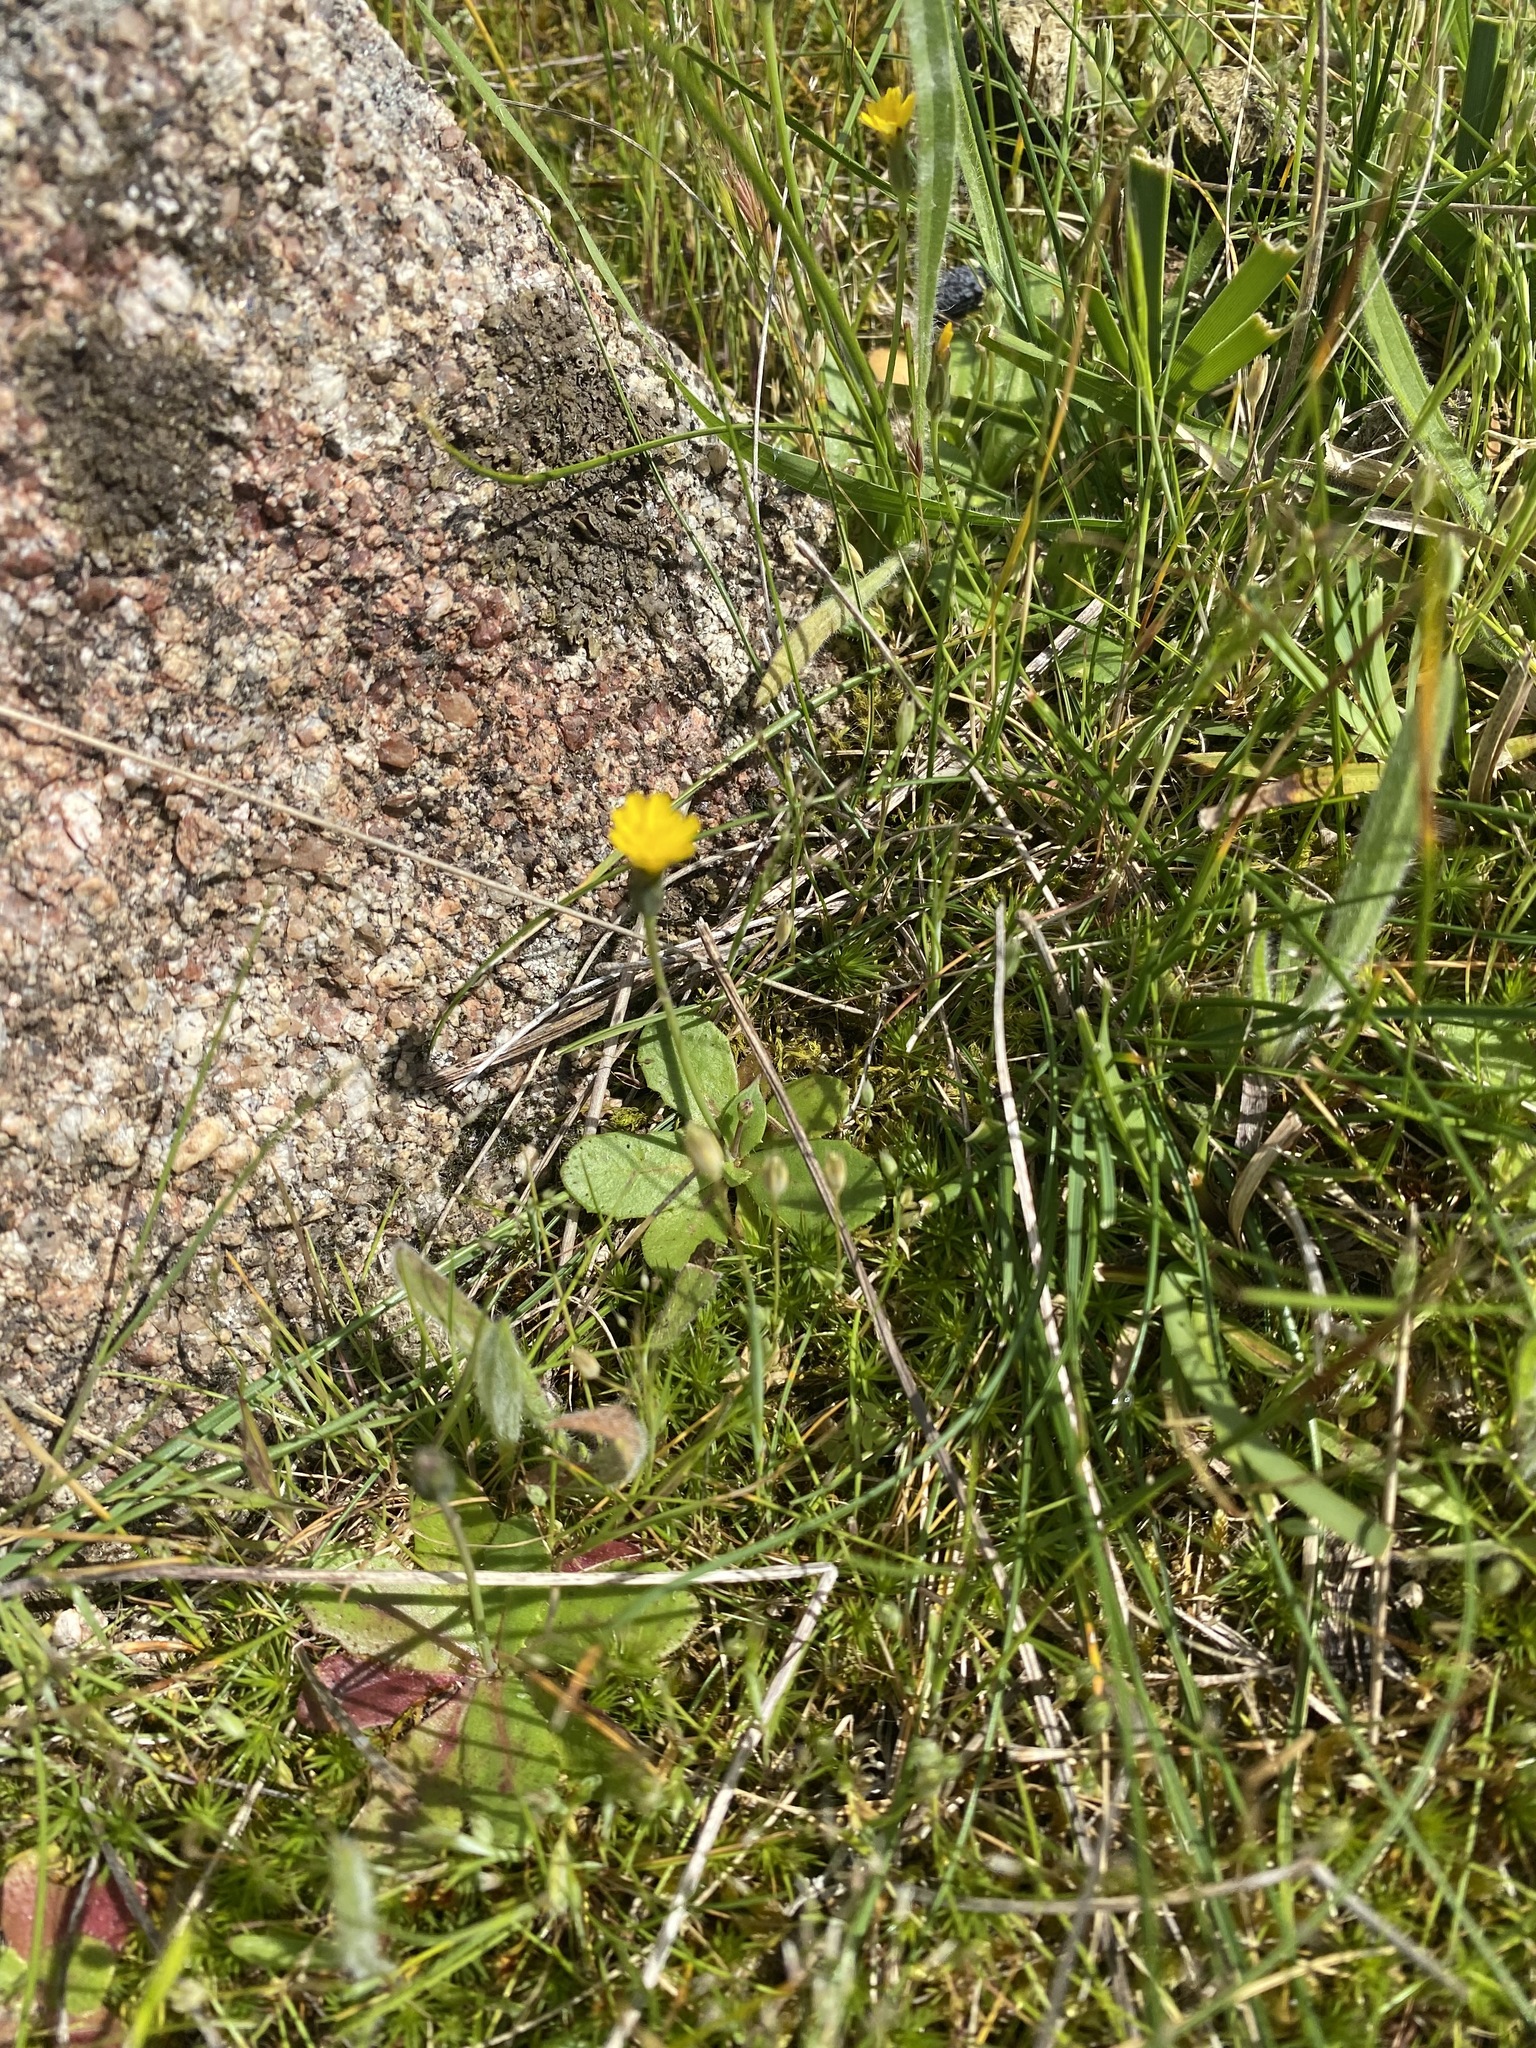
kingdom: Plantae
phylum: Tracheophyta
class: Magnoliopsida
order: Asterales
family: Asteraceae
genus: Hypochaeris
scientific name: Hypochaeris glabra
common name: Smooth catsear
